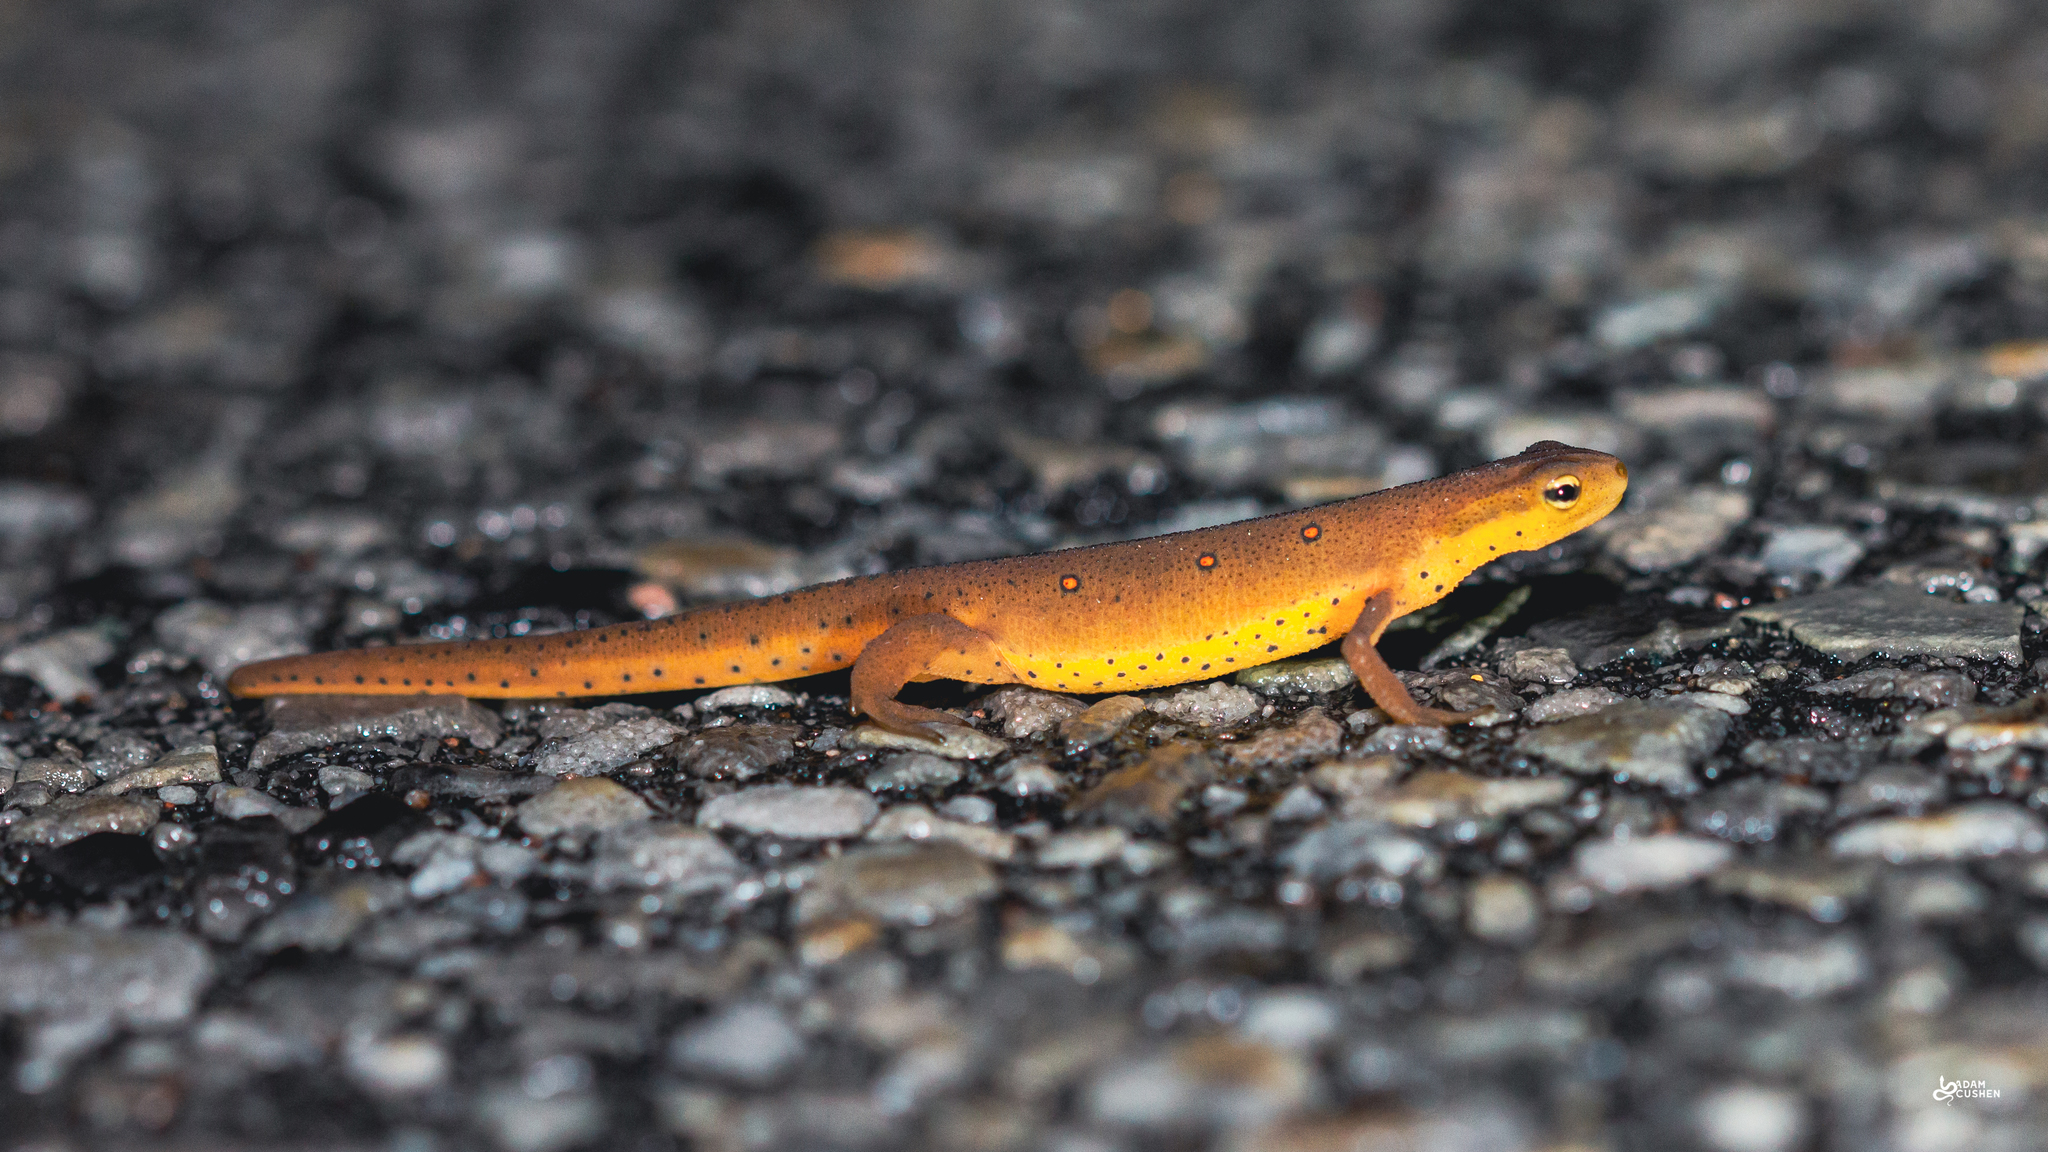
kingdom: Animalia
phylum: Chordata
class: Amphibia
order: Caudata
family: Salamandridae
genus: Notophthalmus
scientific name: Notophthalmus viridescens
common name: Eastern newt
